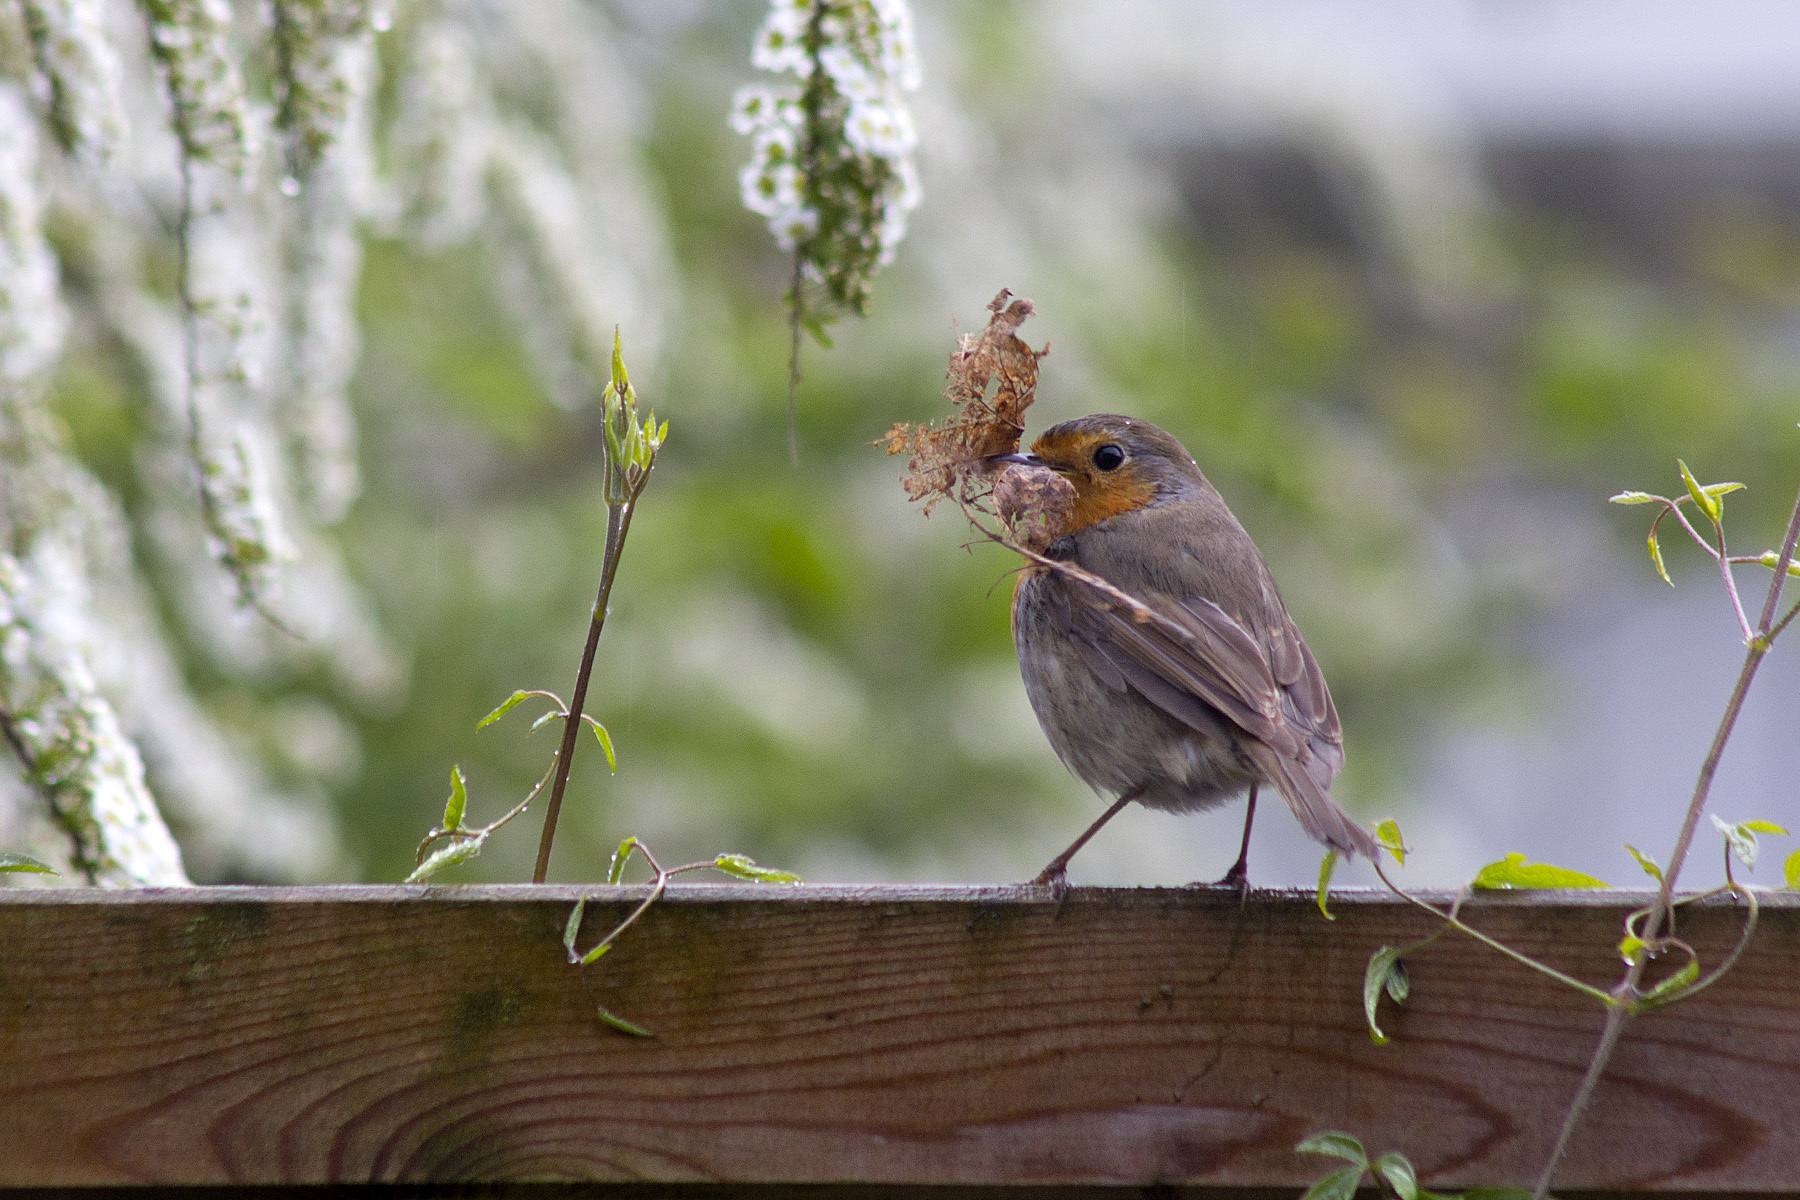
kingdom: Animalia
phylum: Chordata
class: Aves
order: Passeriformes
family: Muscicapidae
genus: Erithacus
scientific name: Erithacus rubecula
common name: European robin
